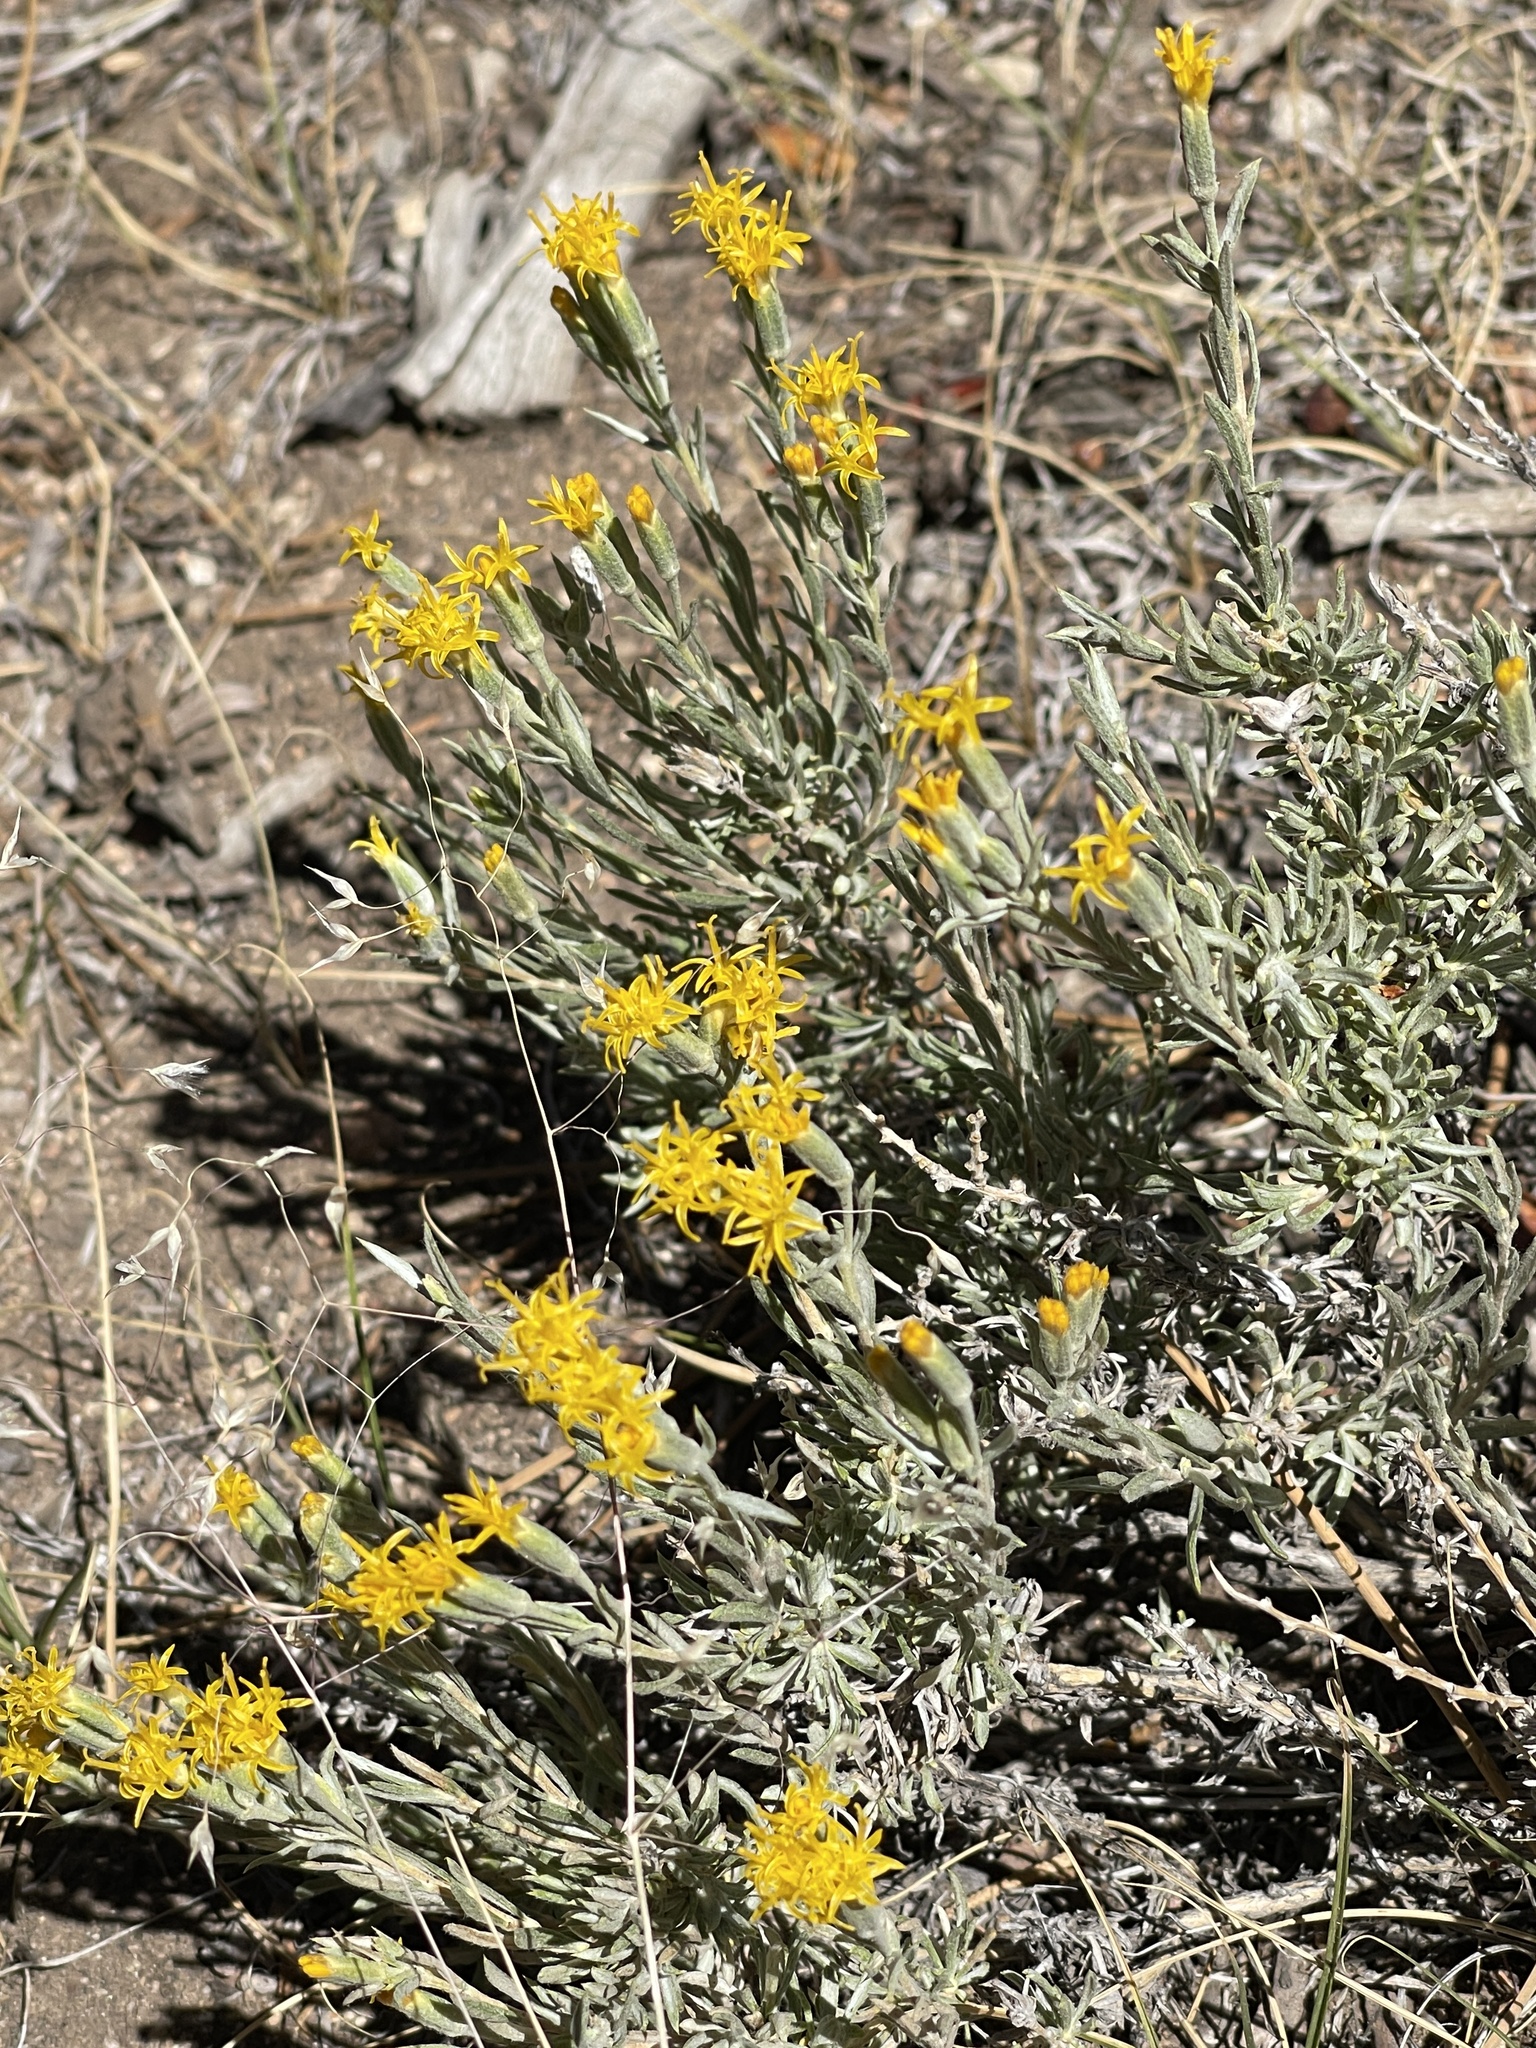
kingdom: Plantae
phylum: Tracheophyta
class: Magnoliopsida
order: Asterales
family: Asteraceae
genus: Tetradymia
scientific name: Tetradymia canescens
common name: Spineless horsebrush
